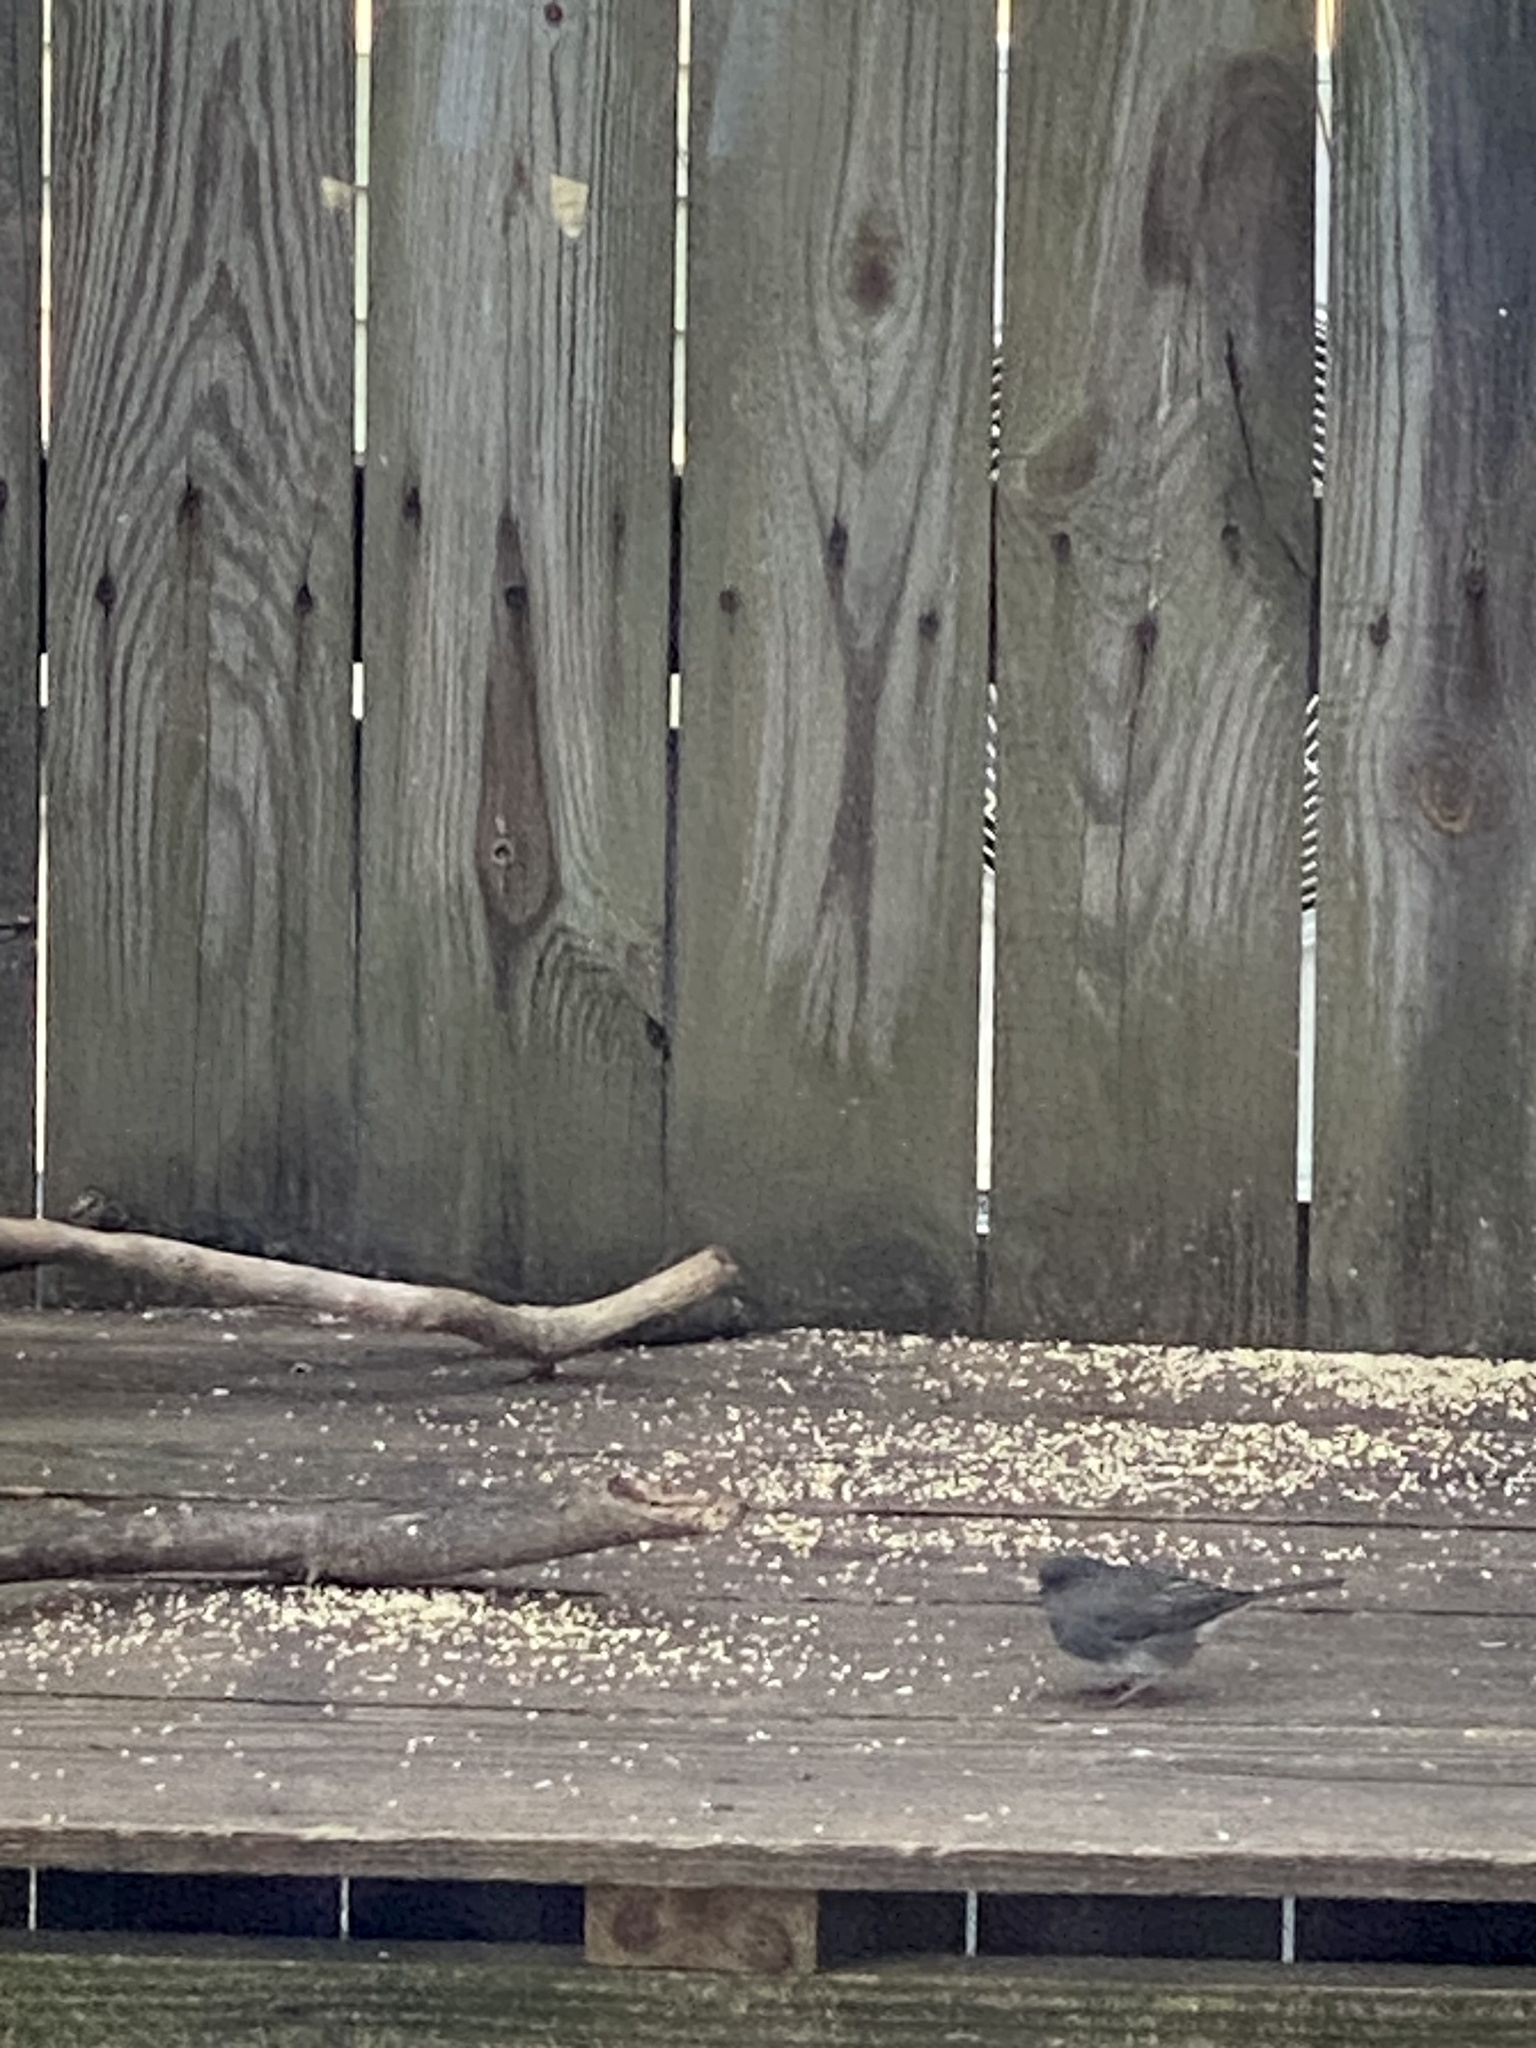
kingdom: Animalia
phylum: Chordata
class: Aves
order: Passeriformes
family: Passerellidae
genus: Junco
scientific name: Junco hyemalis
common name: Dark-eyed junco
